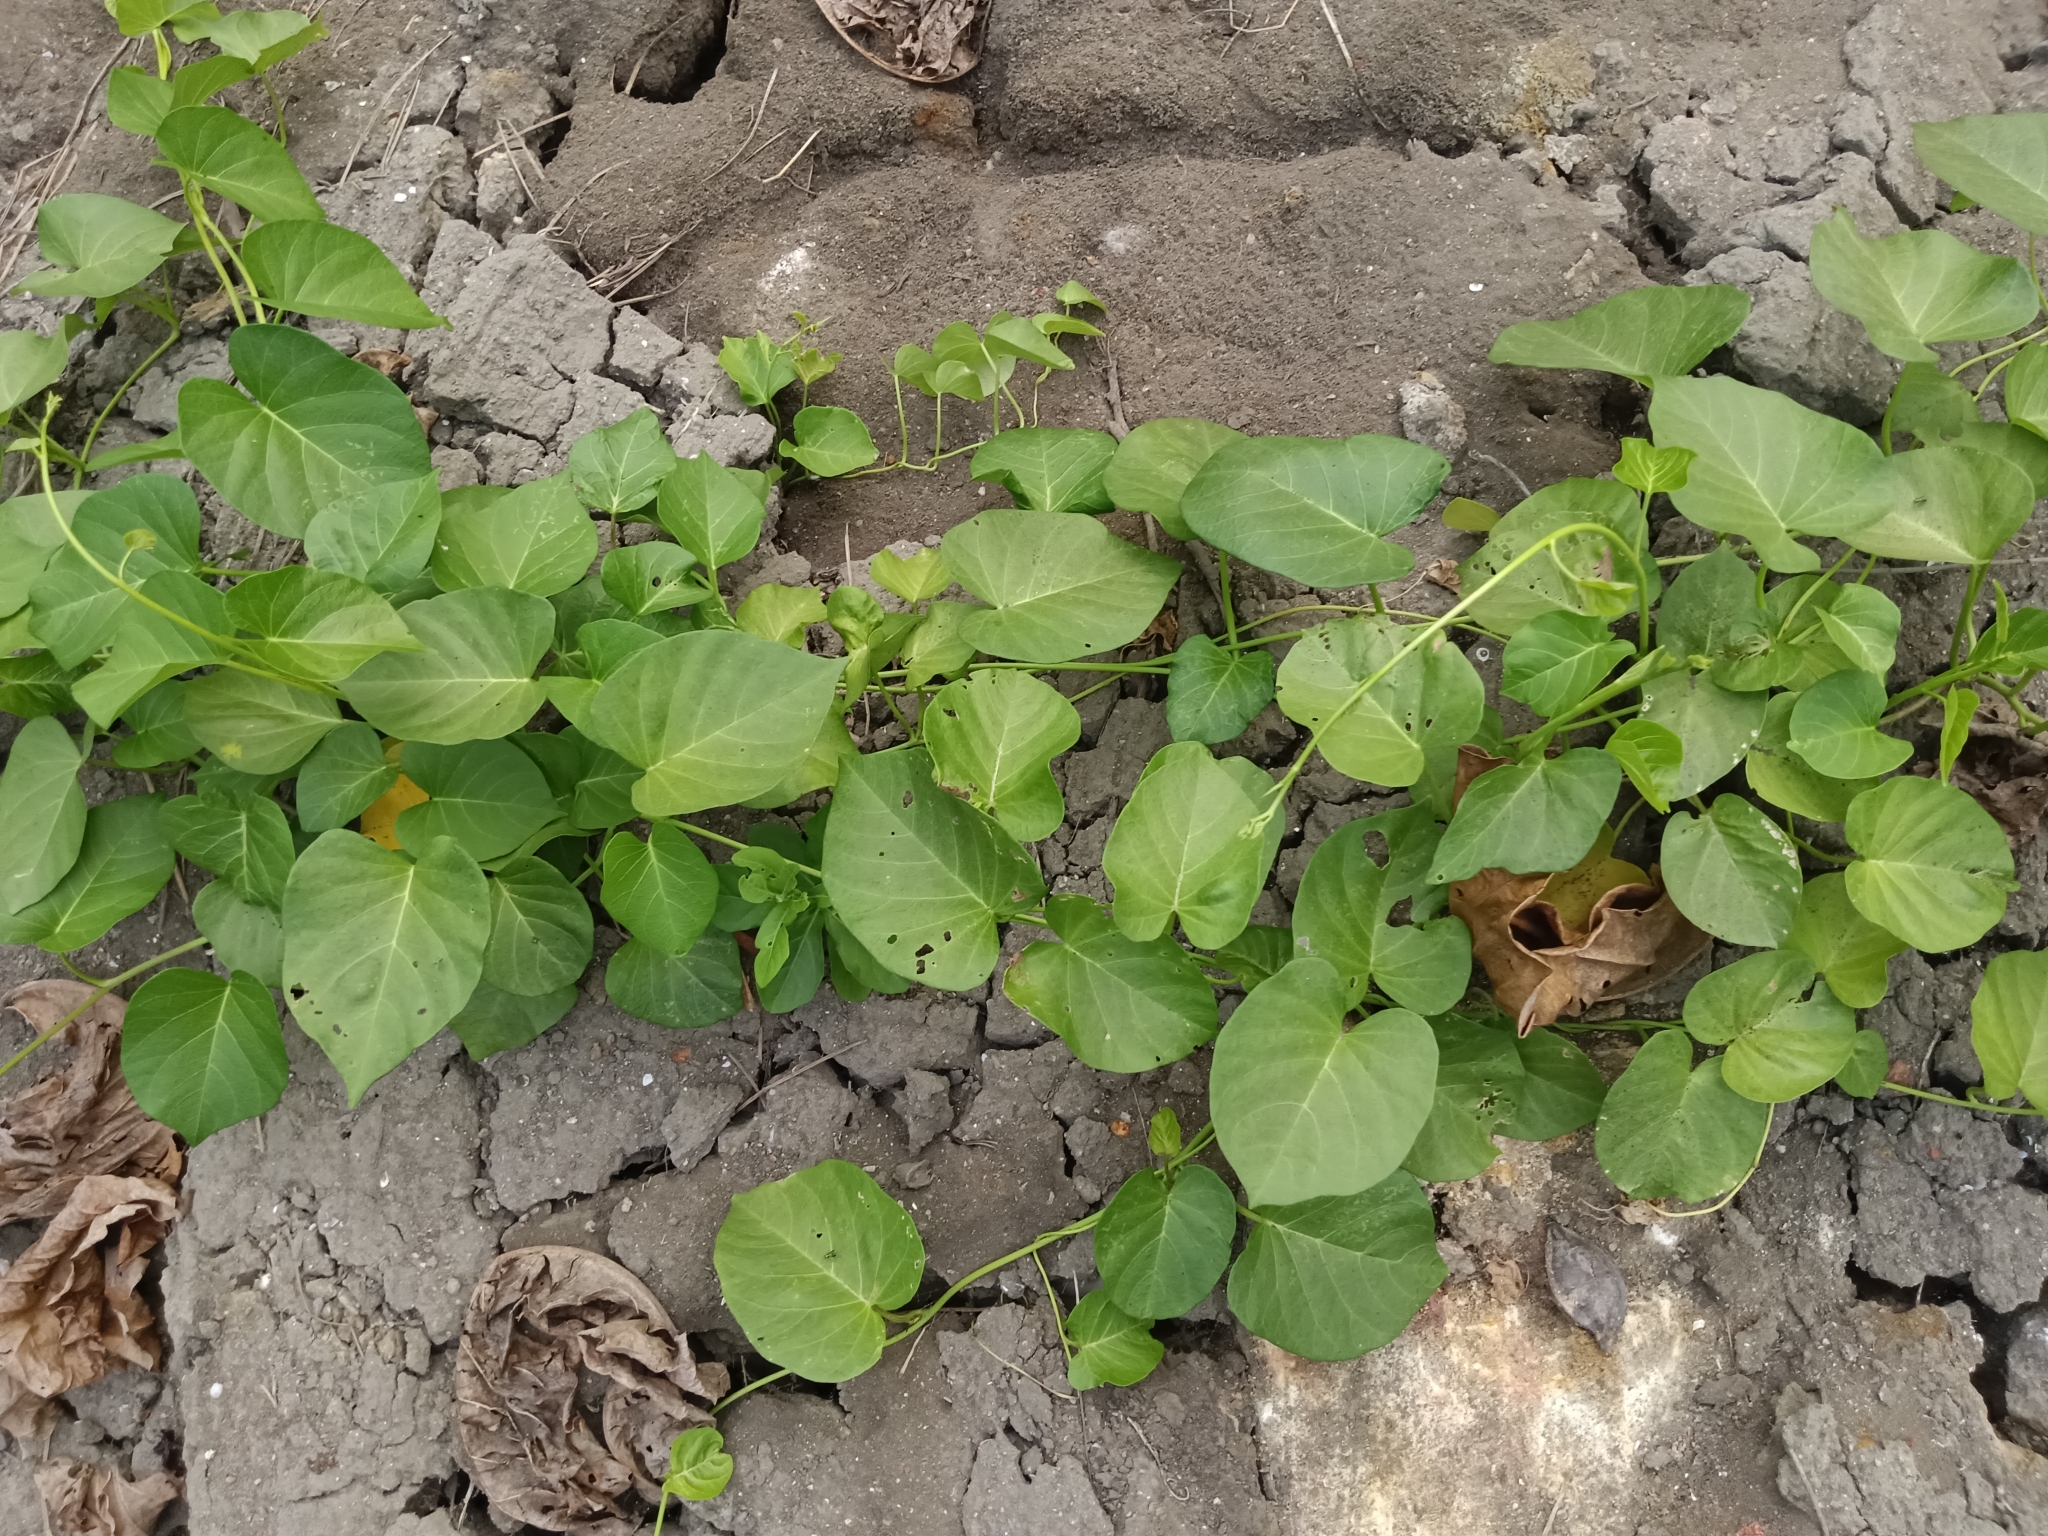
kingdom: Plantae
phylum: Tracheophyta
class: Magnoliopsida
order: Solanales
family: Convolvulaceae
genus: Ipomoea
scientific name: Ipomoea violacea
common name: Beach moonflower
